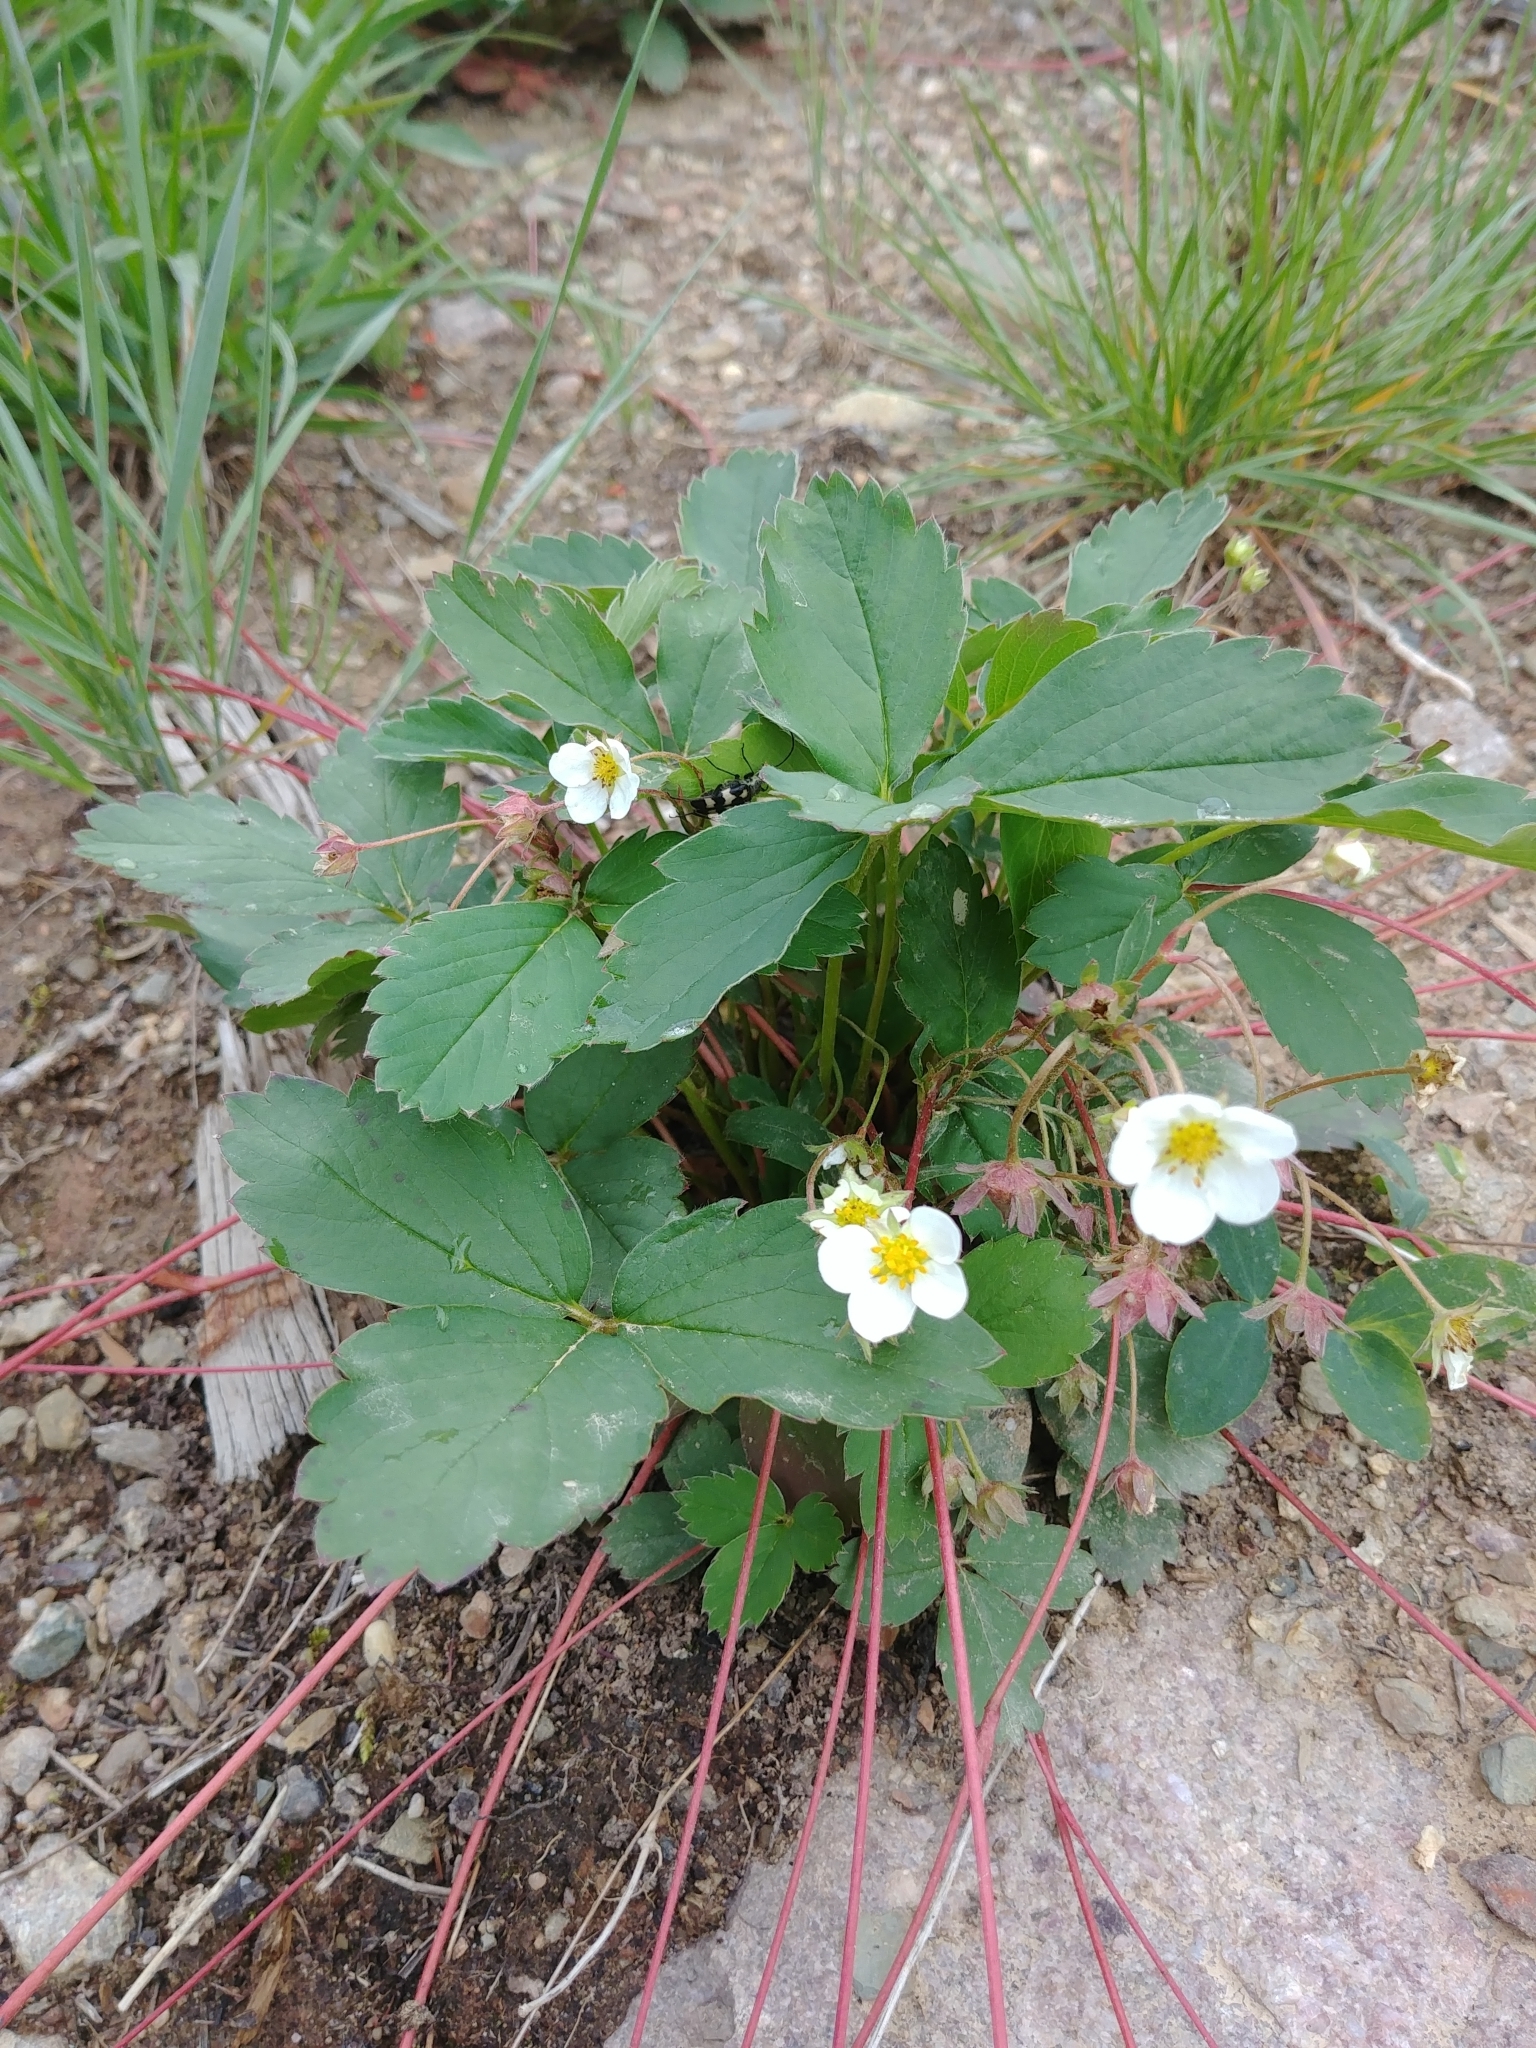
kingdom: Plantae
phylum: Tracheophyta
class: Magnoliopsida
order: Rosales
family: Rosaceae
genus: Fragaria
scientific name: Fragaria virginiana
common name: Thickleaved wild strawberry
